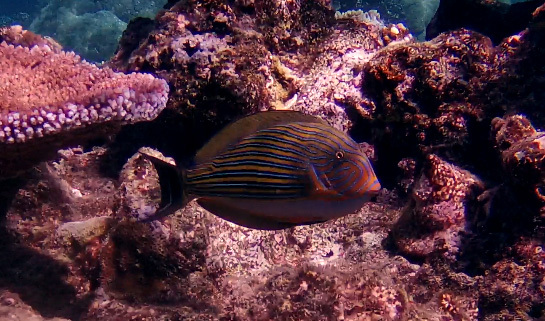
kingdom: Animalia
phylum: Chordata
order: Perciformes
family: Acanthuridae
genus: Acanthurus
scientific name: Acanthurus lineatus
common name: Striped surgeonfish
